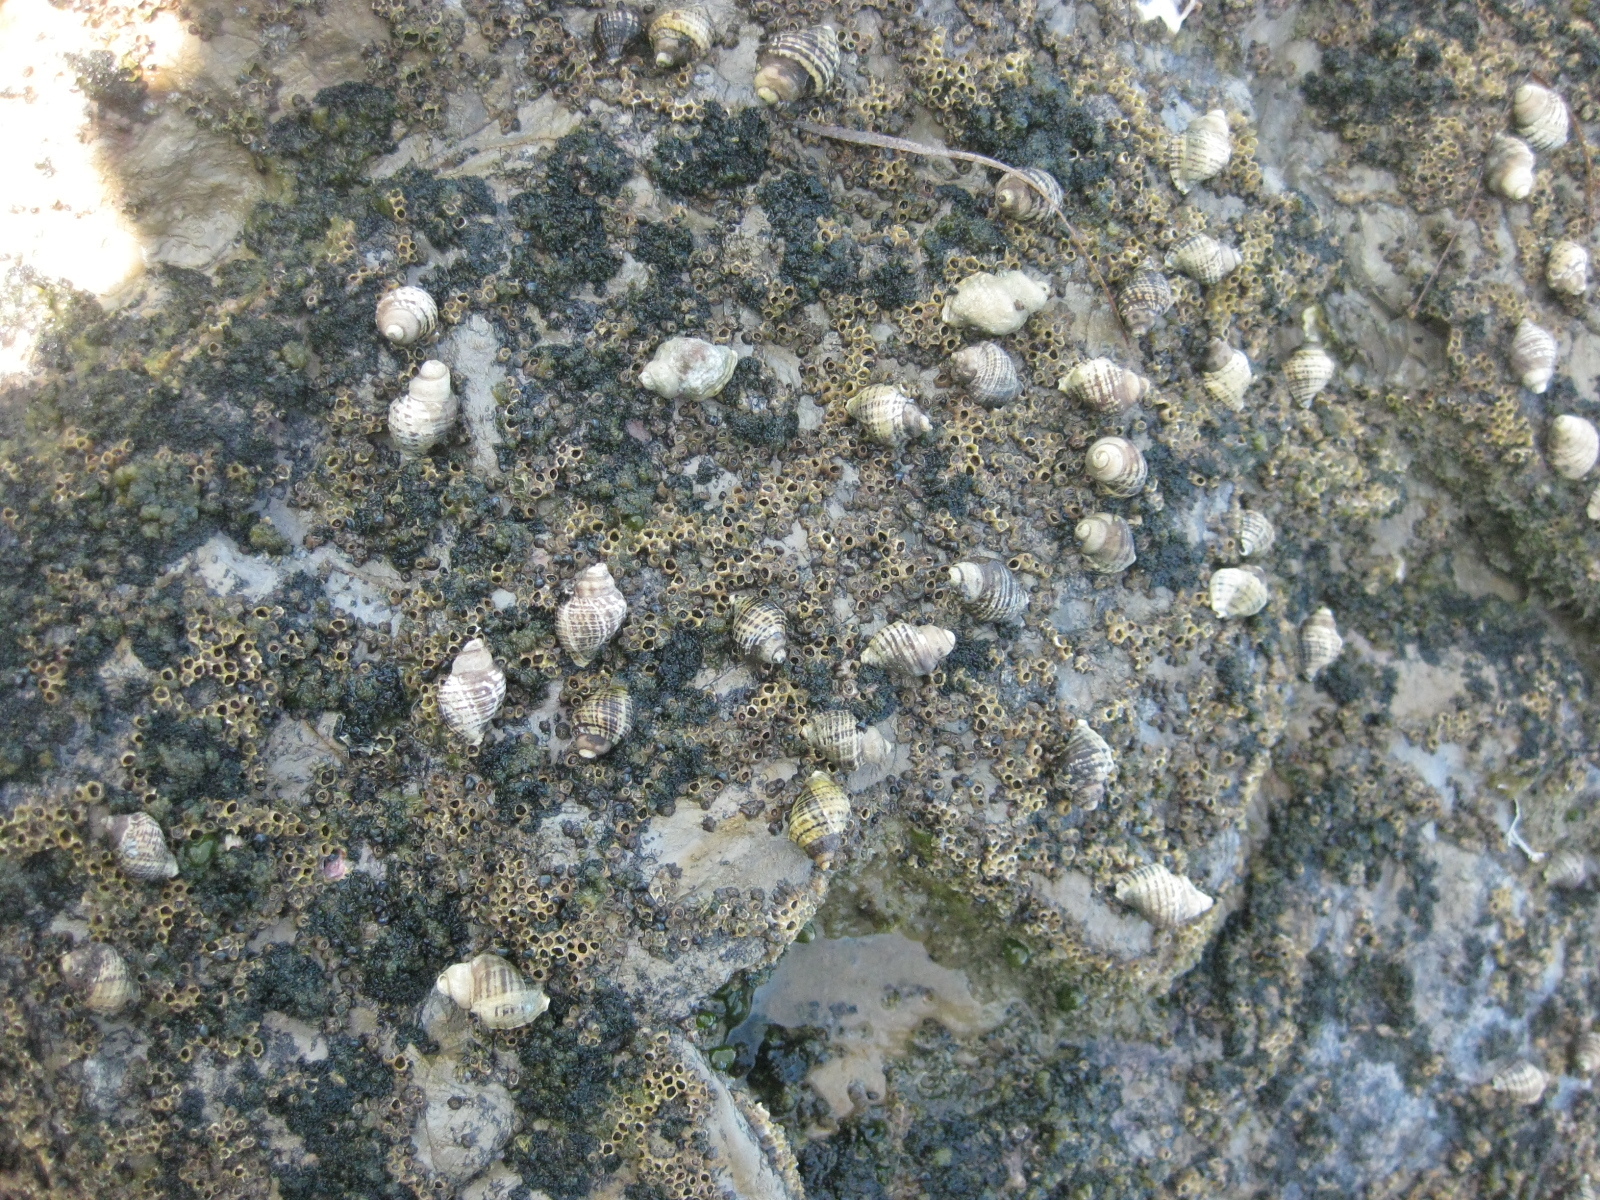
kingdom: Animalia
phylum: Mollusca
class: Gastropoda
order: Neogastropoda
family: Muricidae
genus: Haustrum
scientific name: Haustrum albomarginatum
